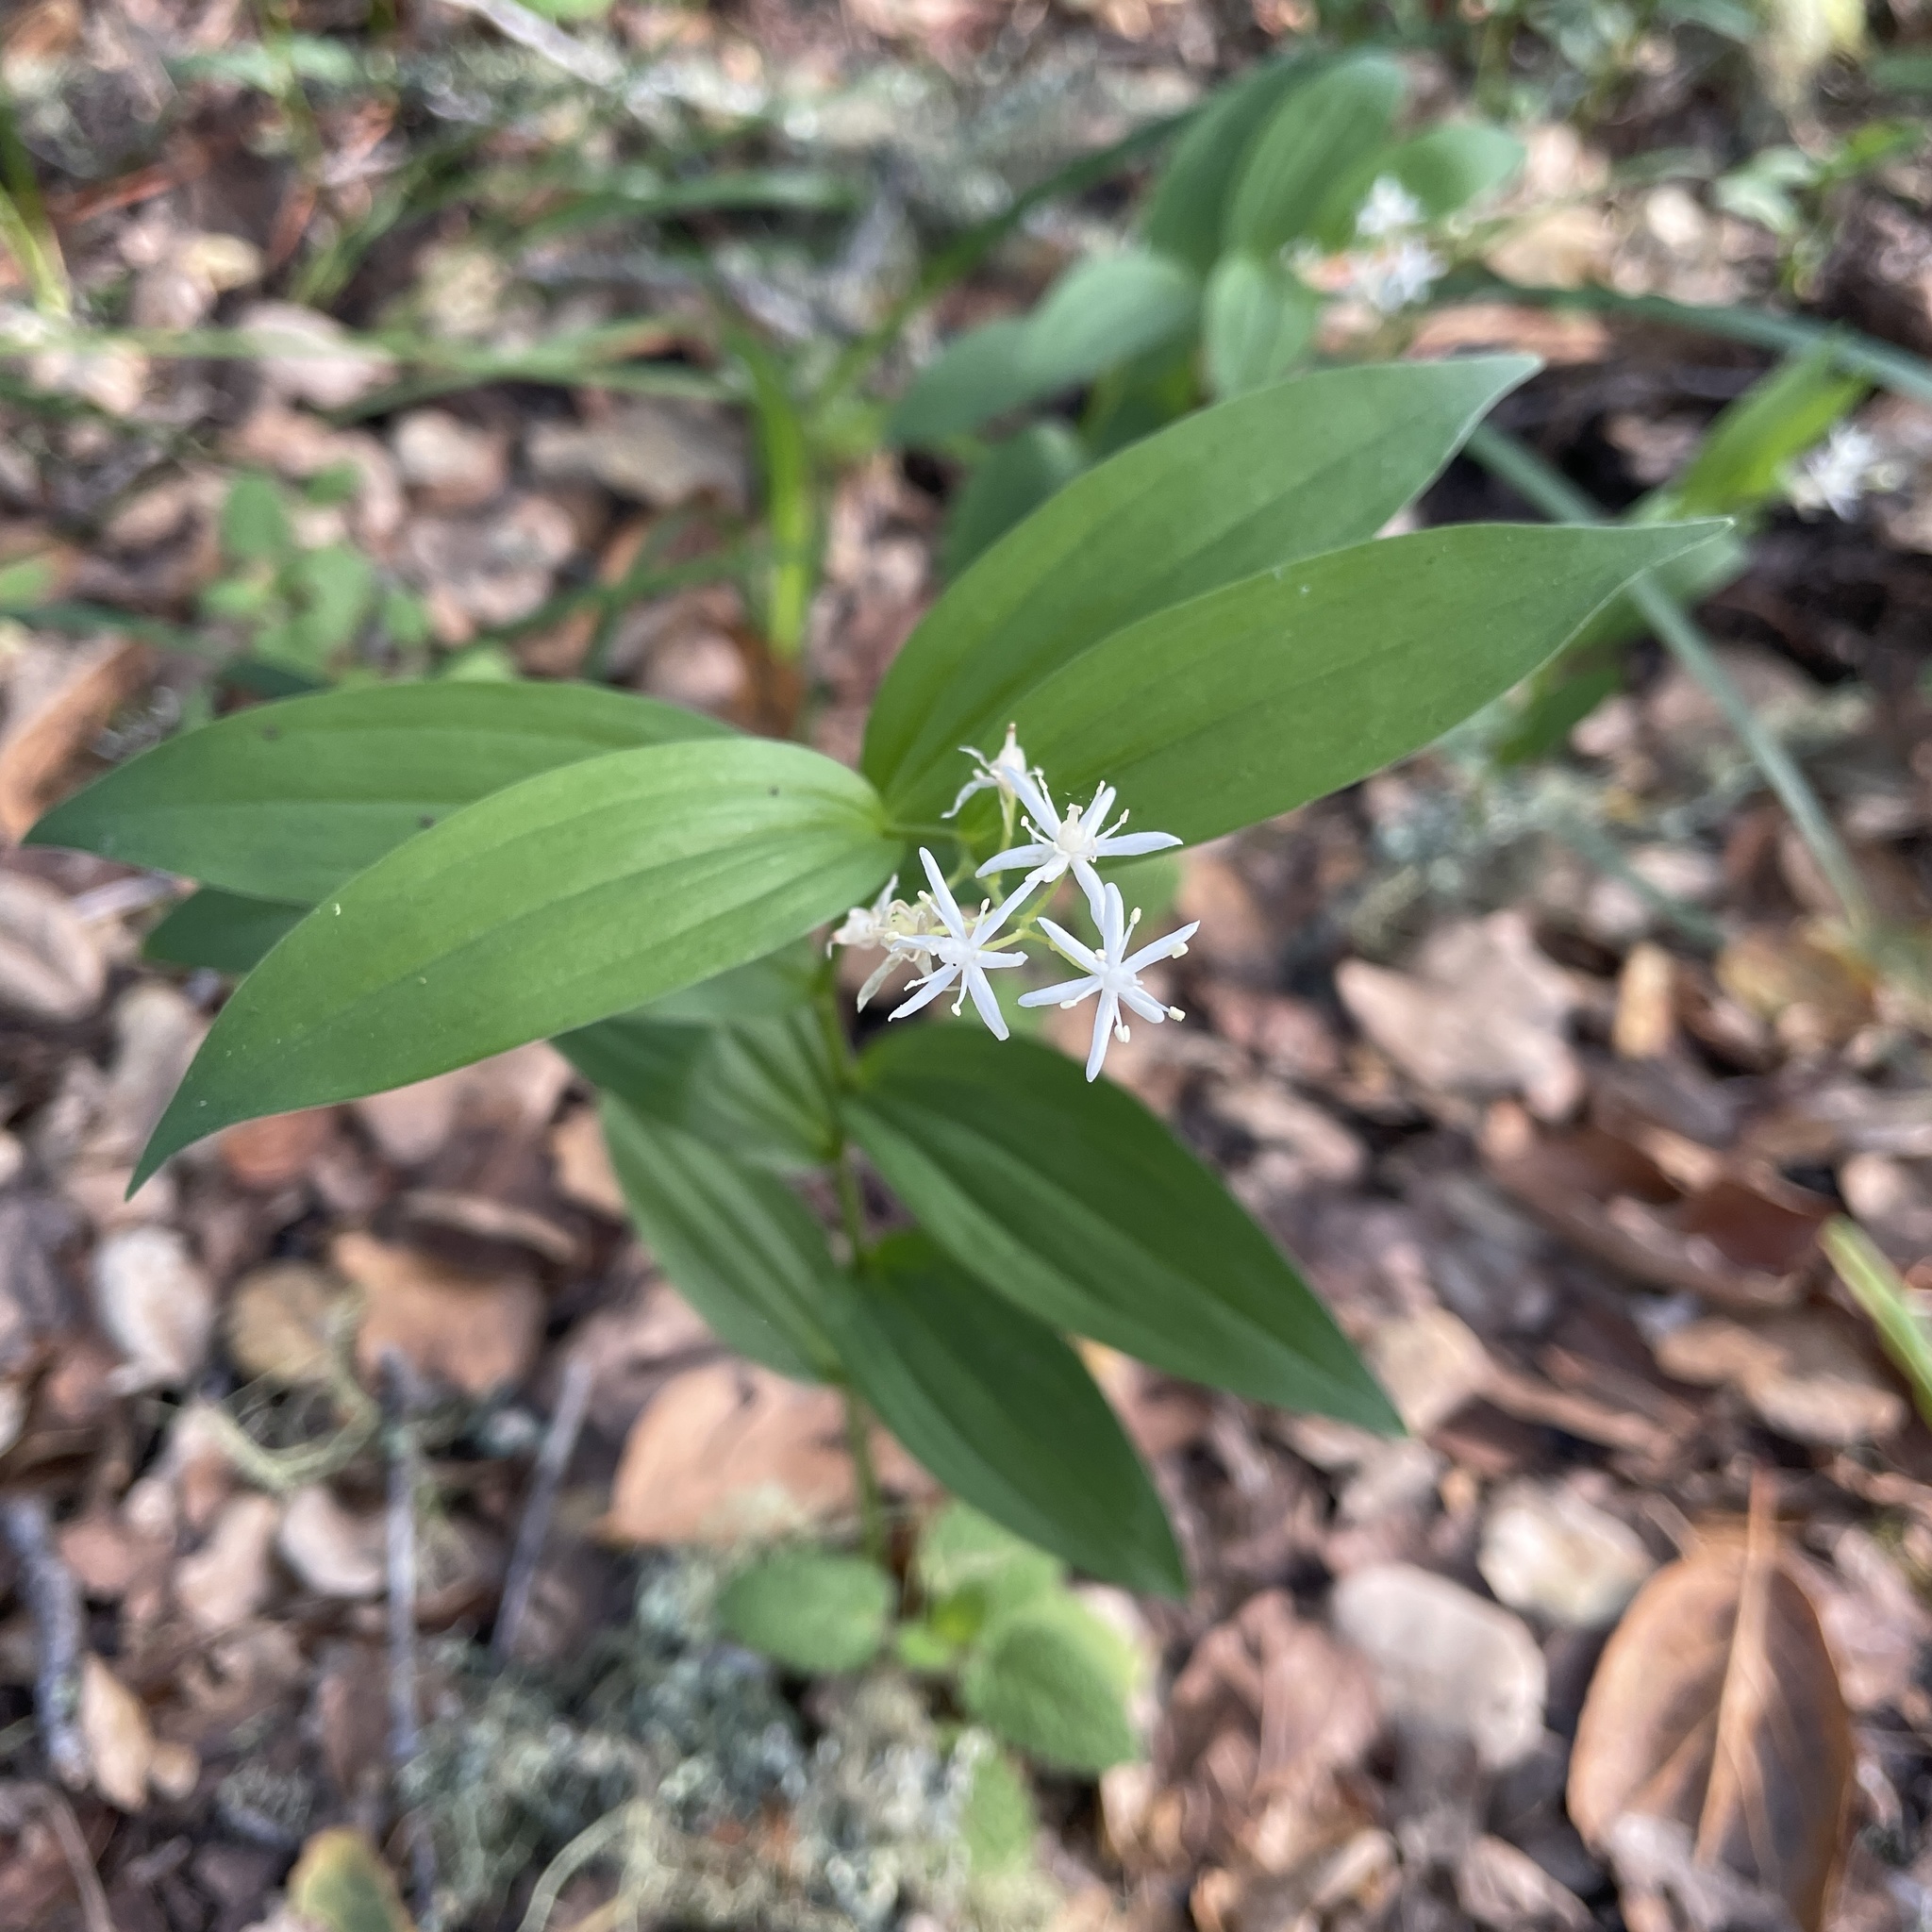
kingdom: Plantae
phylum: Tracheophyta
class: Liliopsida
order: Asparagales
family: Asparagaceae
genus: Maianthemum
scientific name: Maianthemum stellatum
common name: Little false solomon's seal
